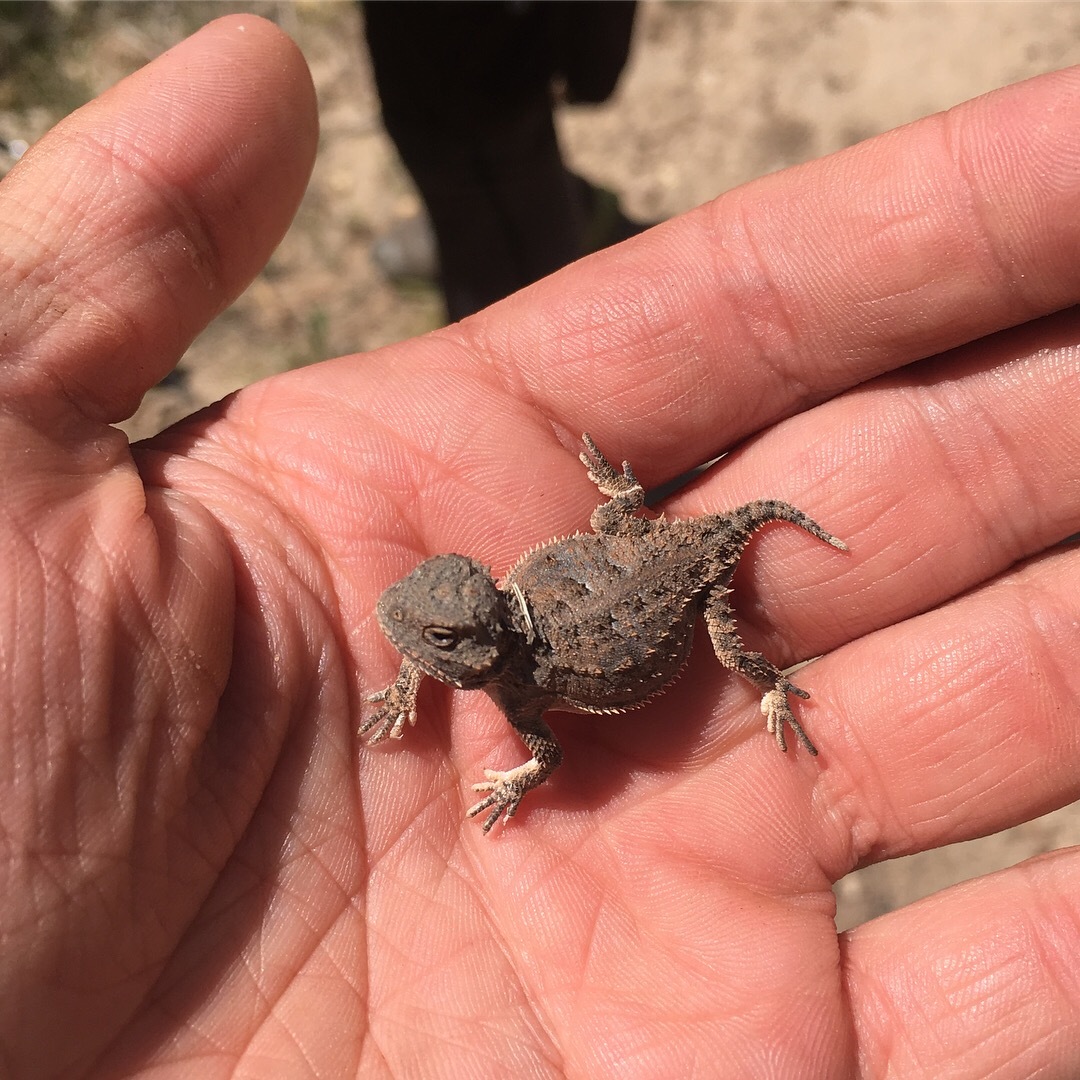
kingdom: Animalia
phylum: Chordata
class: Squamata
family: Phrynosomatidae
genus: Phrynosoma
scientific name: Phrynosoma hernandesi
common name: Greater short-horned lizard
